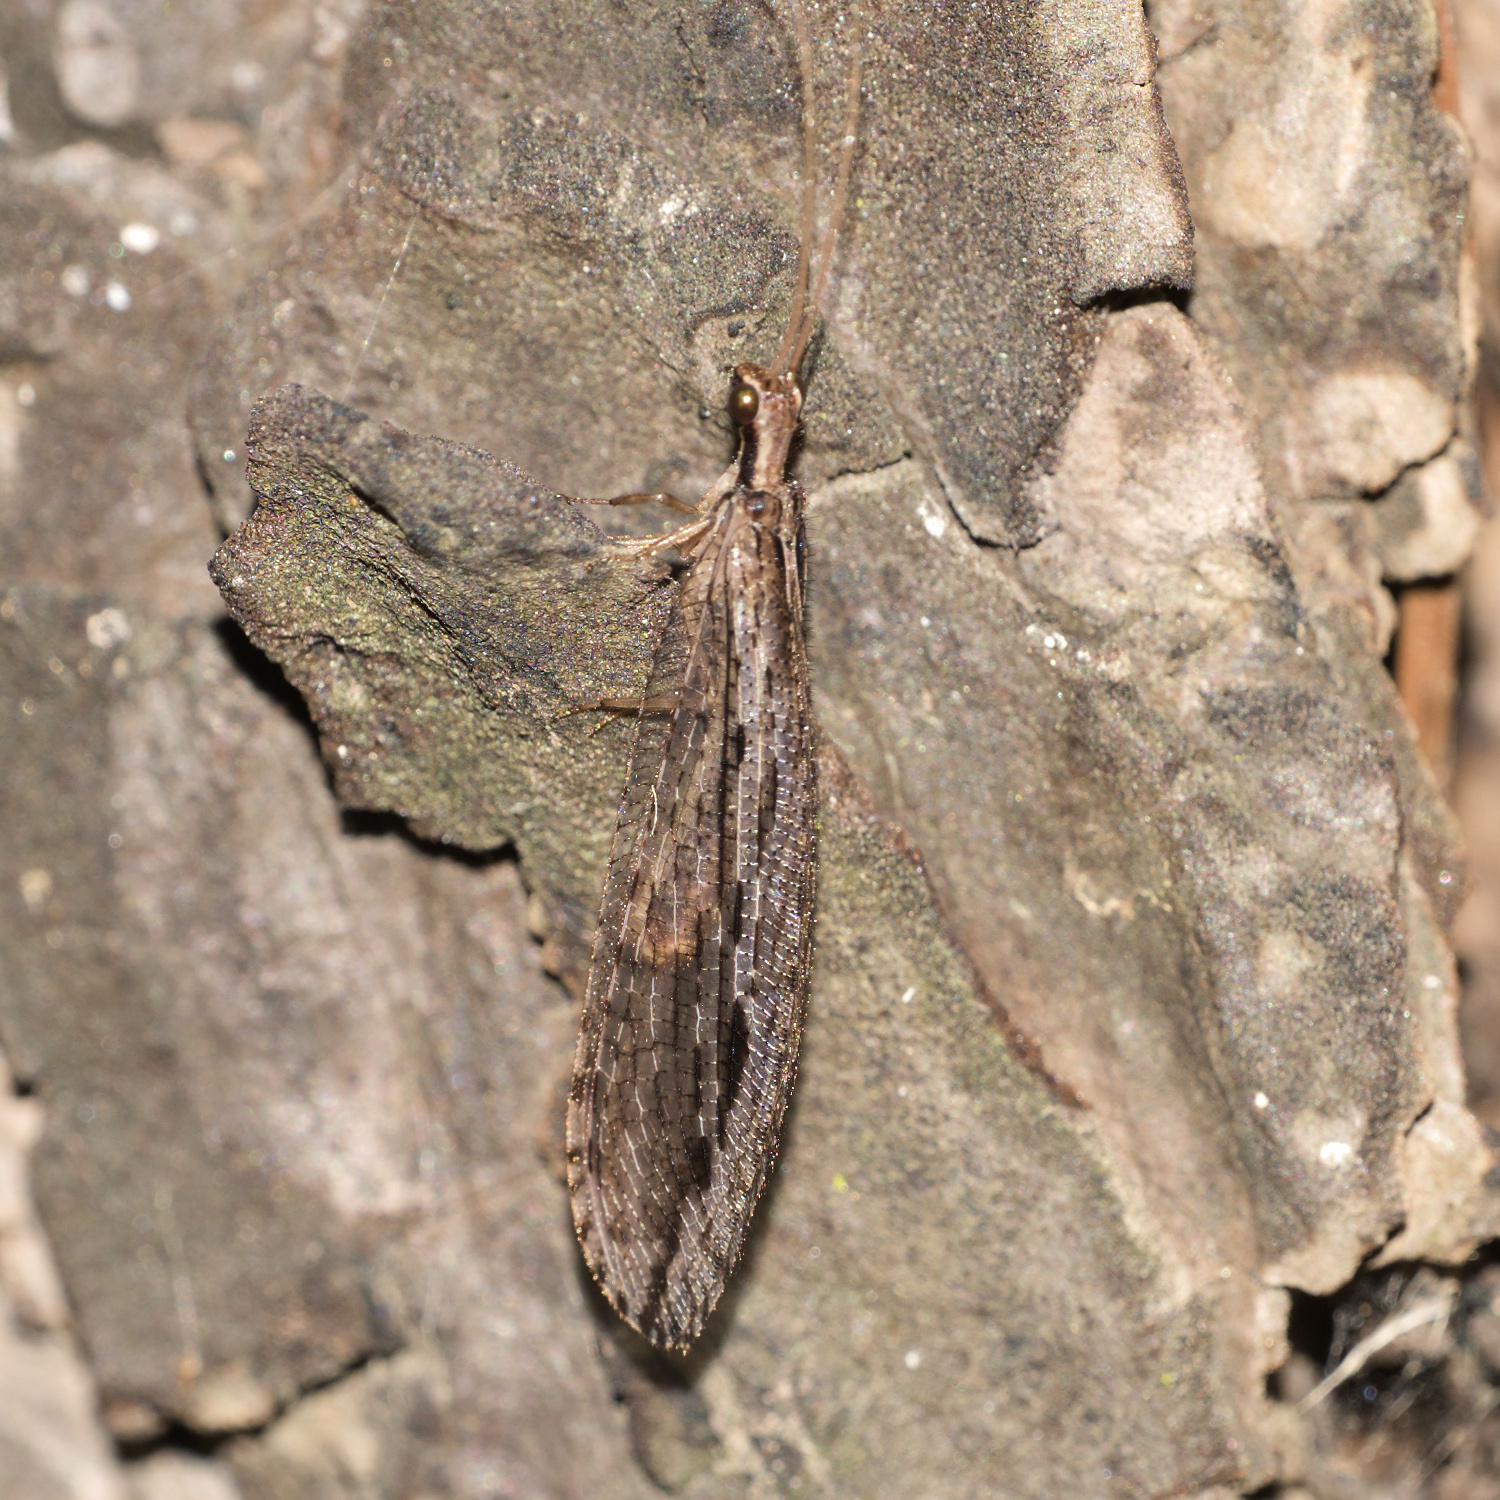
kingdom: Animalia
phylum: Arthropoda
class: Insecta
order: Neuroptera
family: Osmylidae
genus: Stenosmylus
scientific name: Stenosmylus stenopterus
